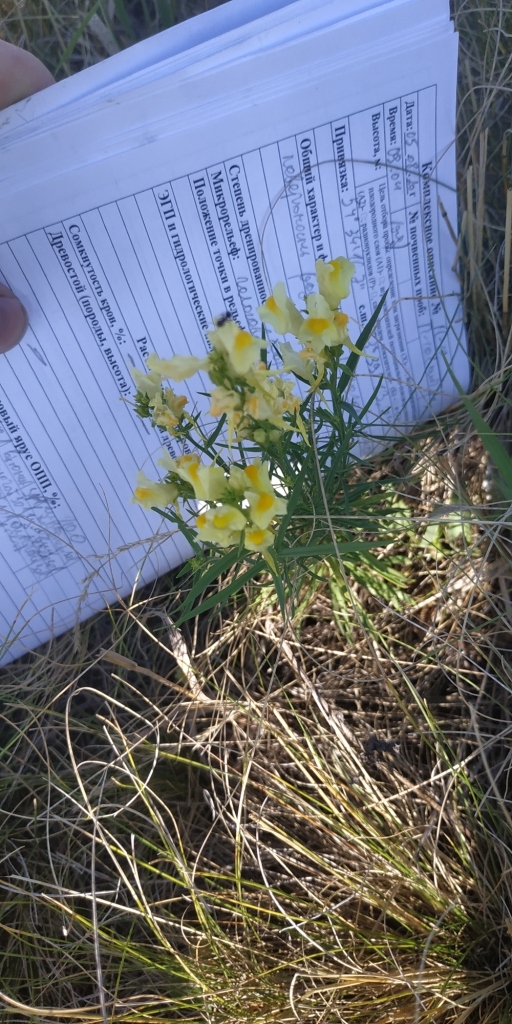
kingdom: Plantae
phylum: Tracheophyta
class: Magnoliopsida
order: Lamiales
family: Plantaginaceae
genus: Linaria
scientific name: Linaria vulgaris
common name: Butter and eggs
